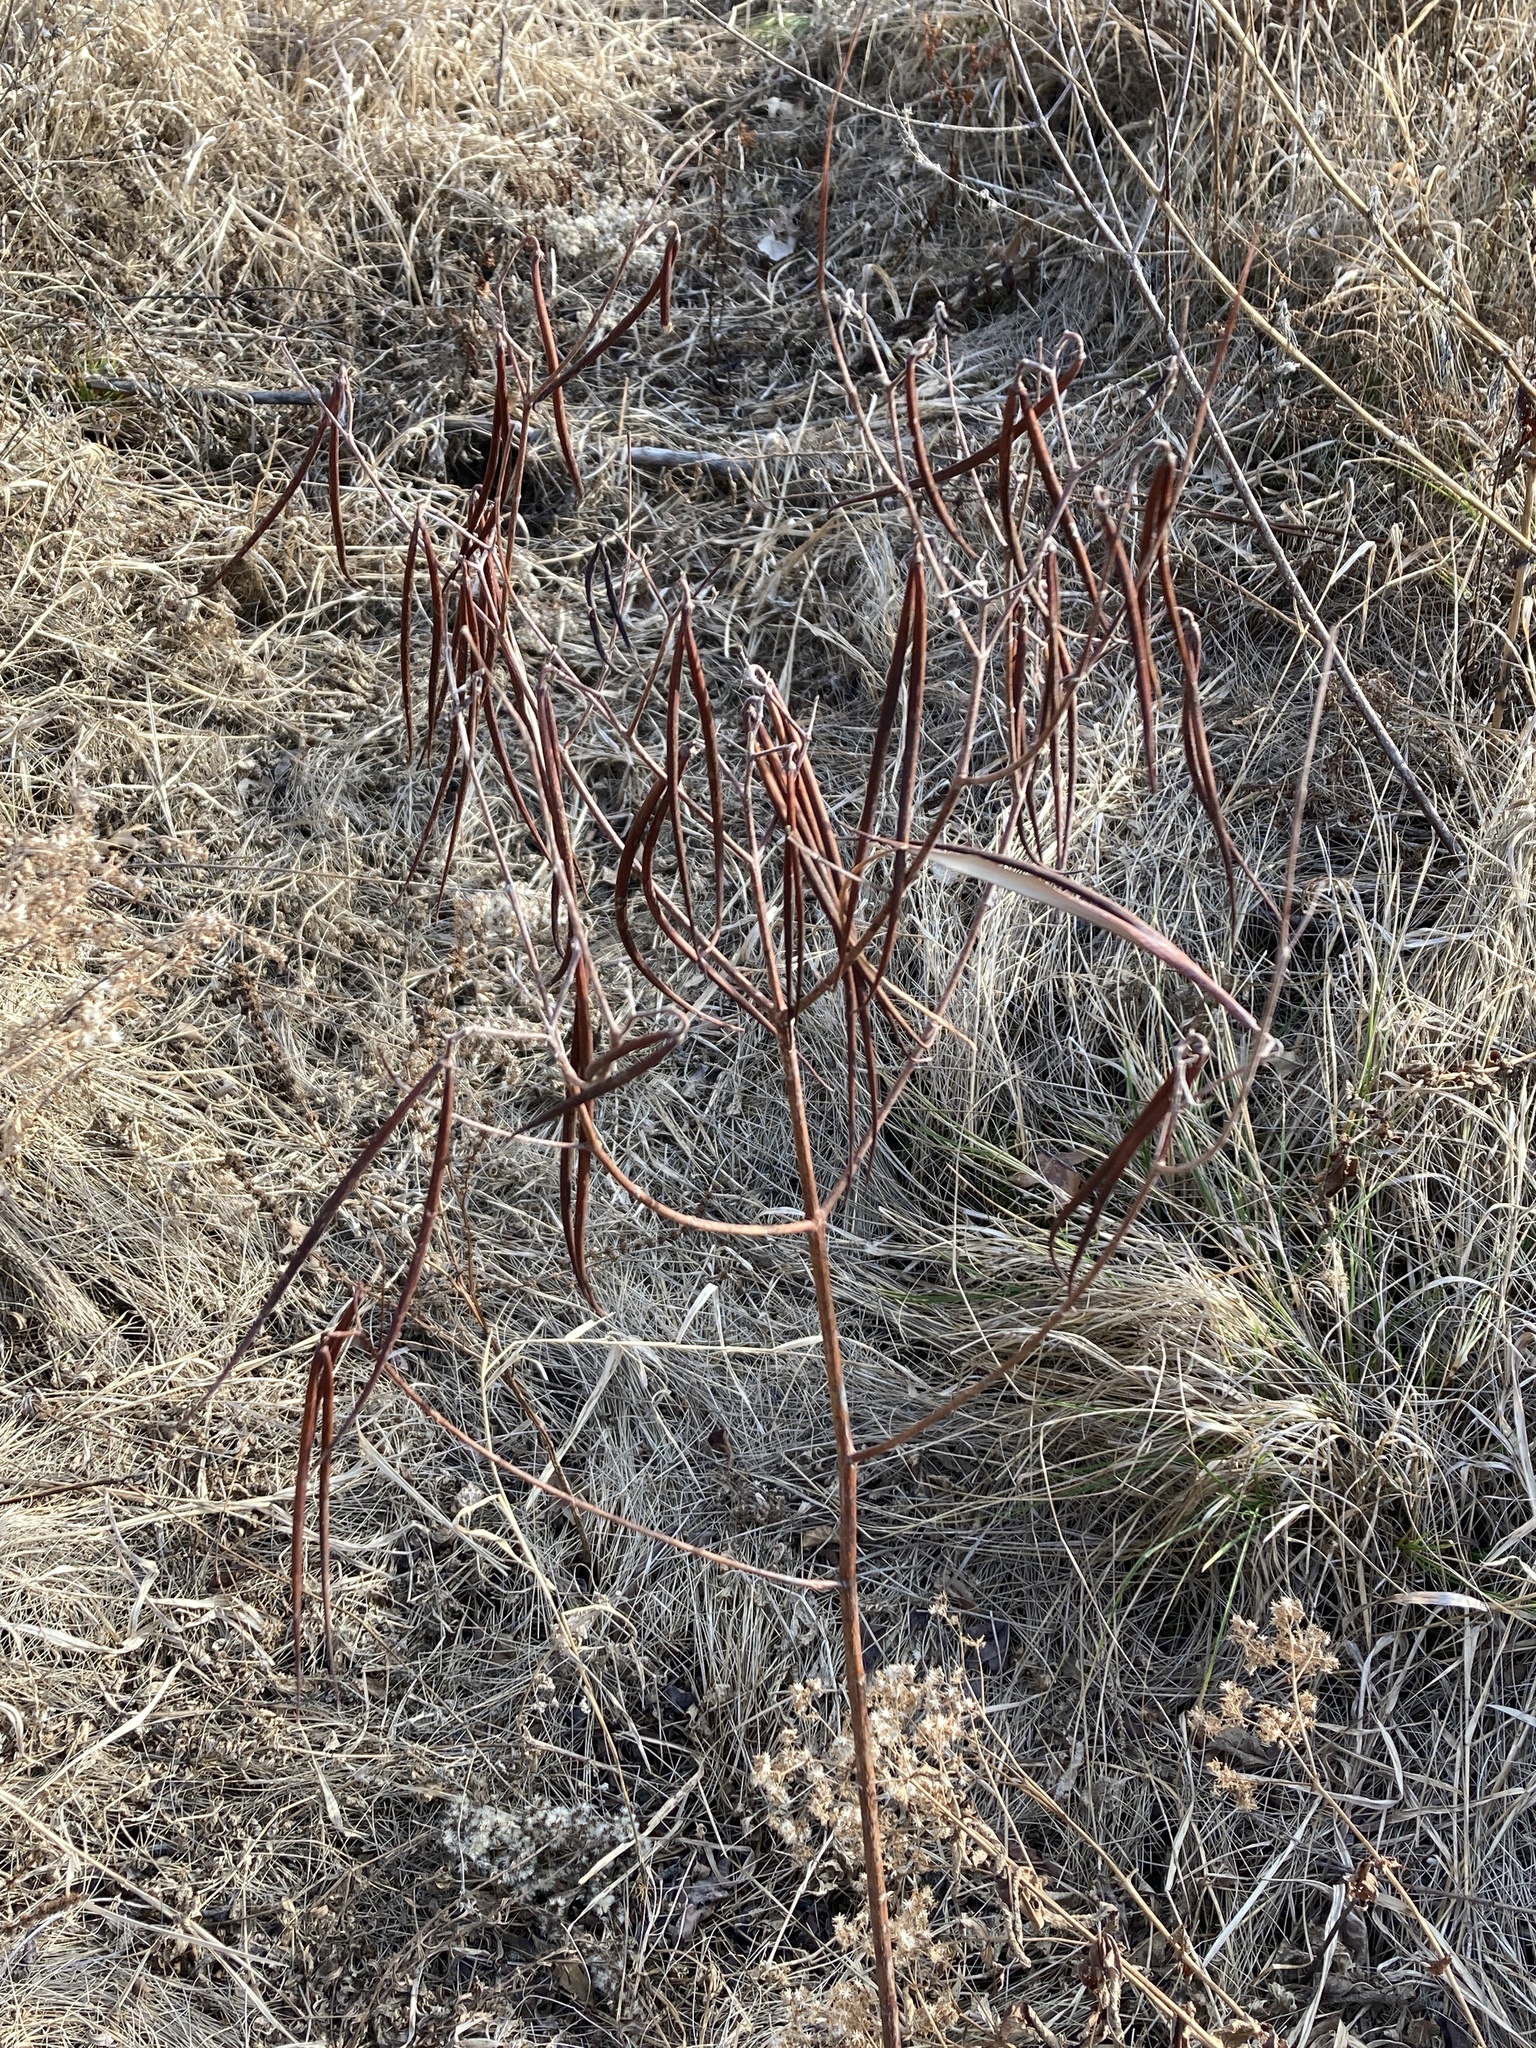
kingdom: Plantae
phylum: Tracheophyta
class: Magnoliopsida
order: Gentianales
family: Apocynaceae
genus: Apocynum
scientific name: Apocynum cannabinum
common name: Hemp dogbane
